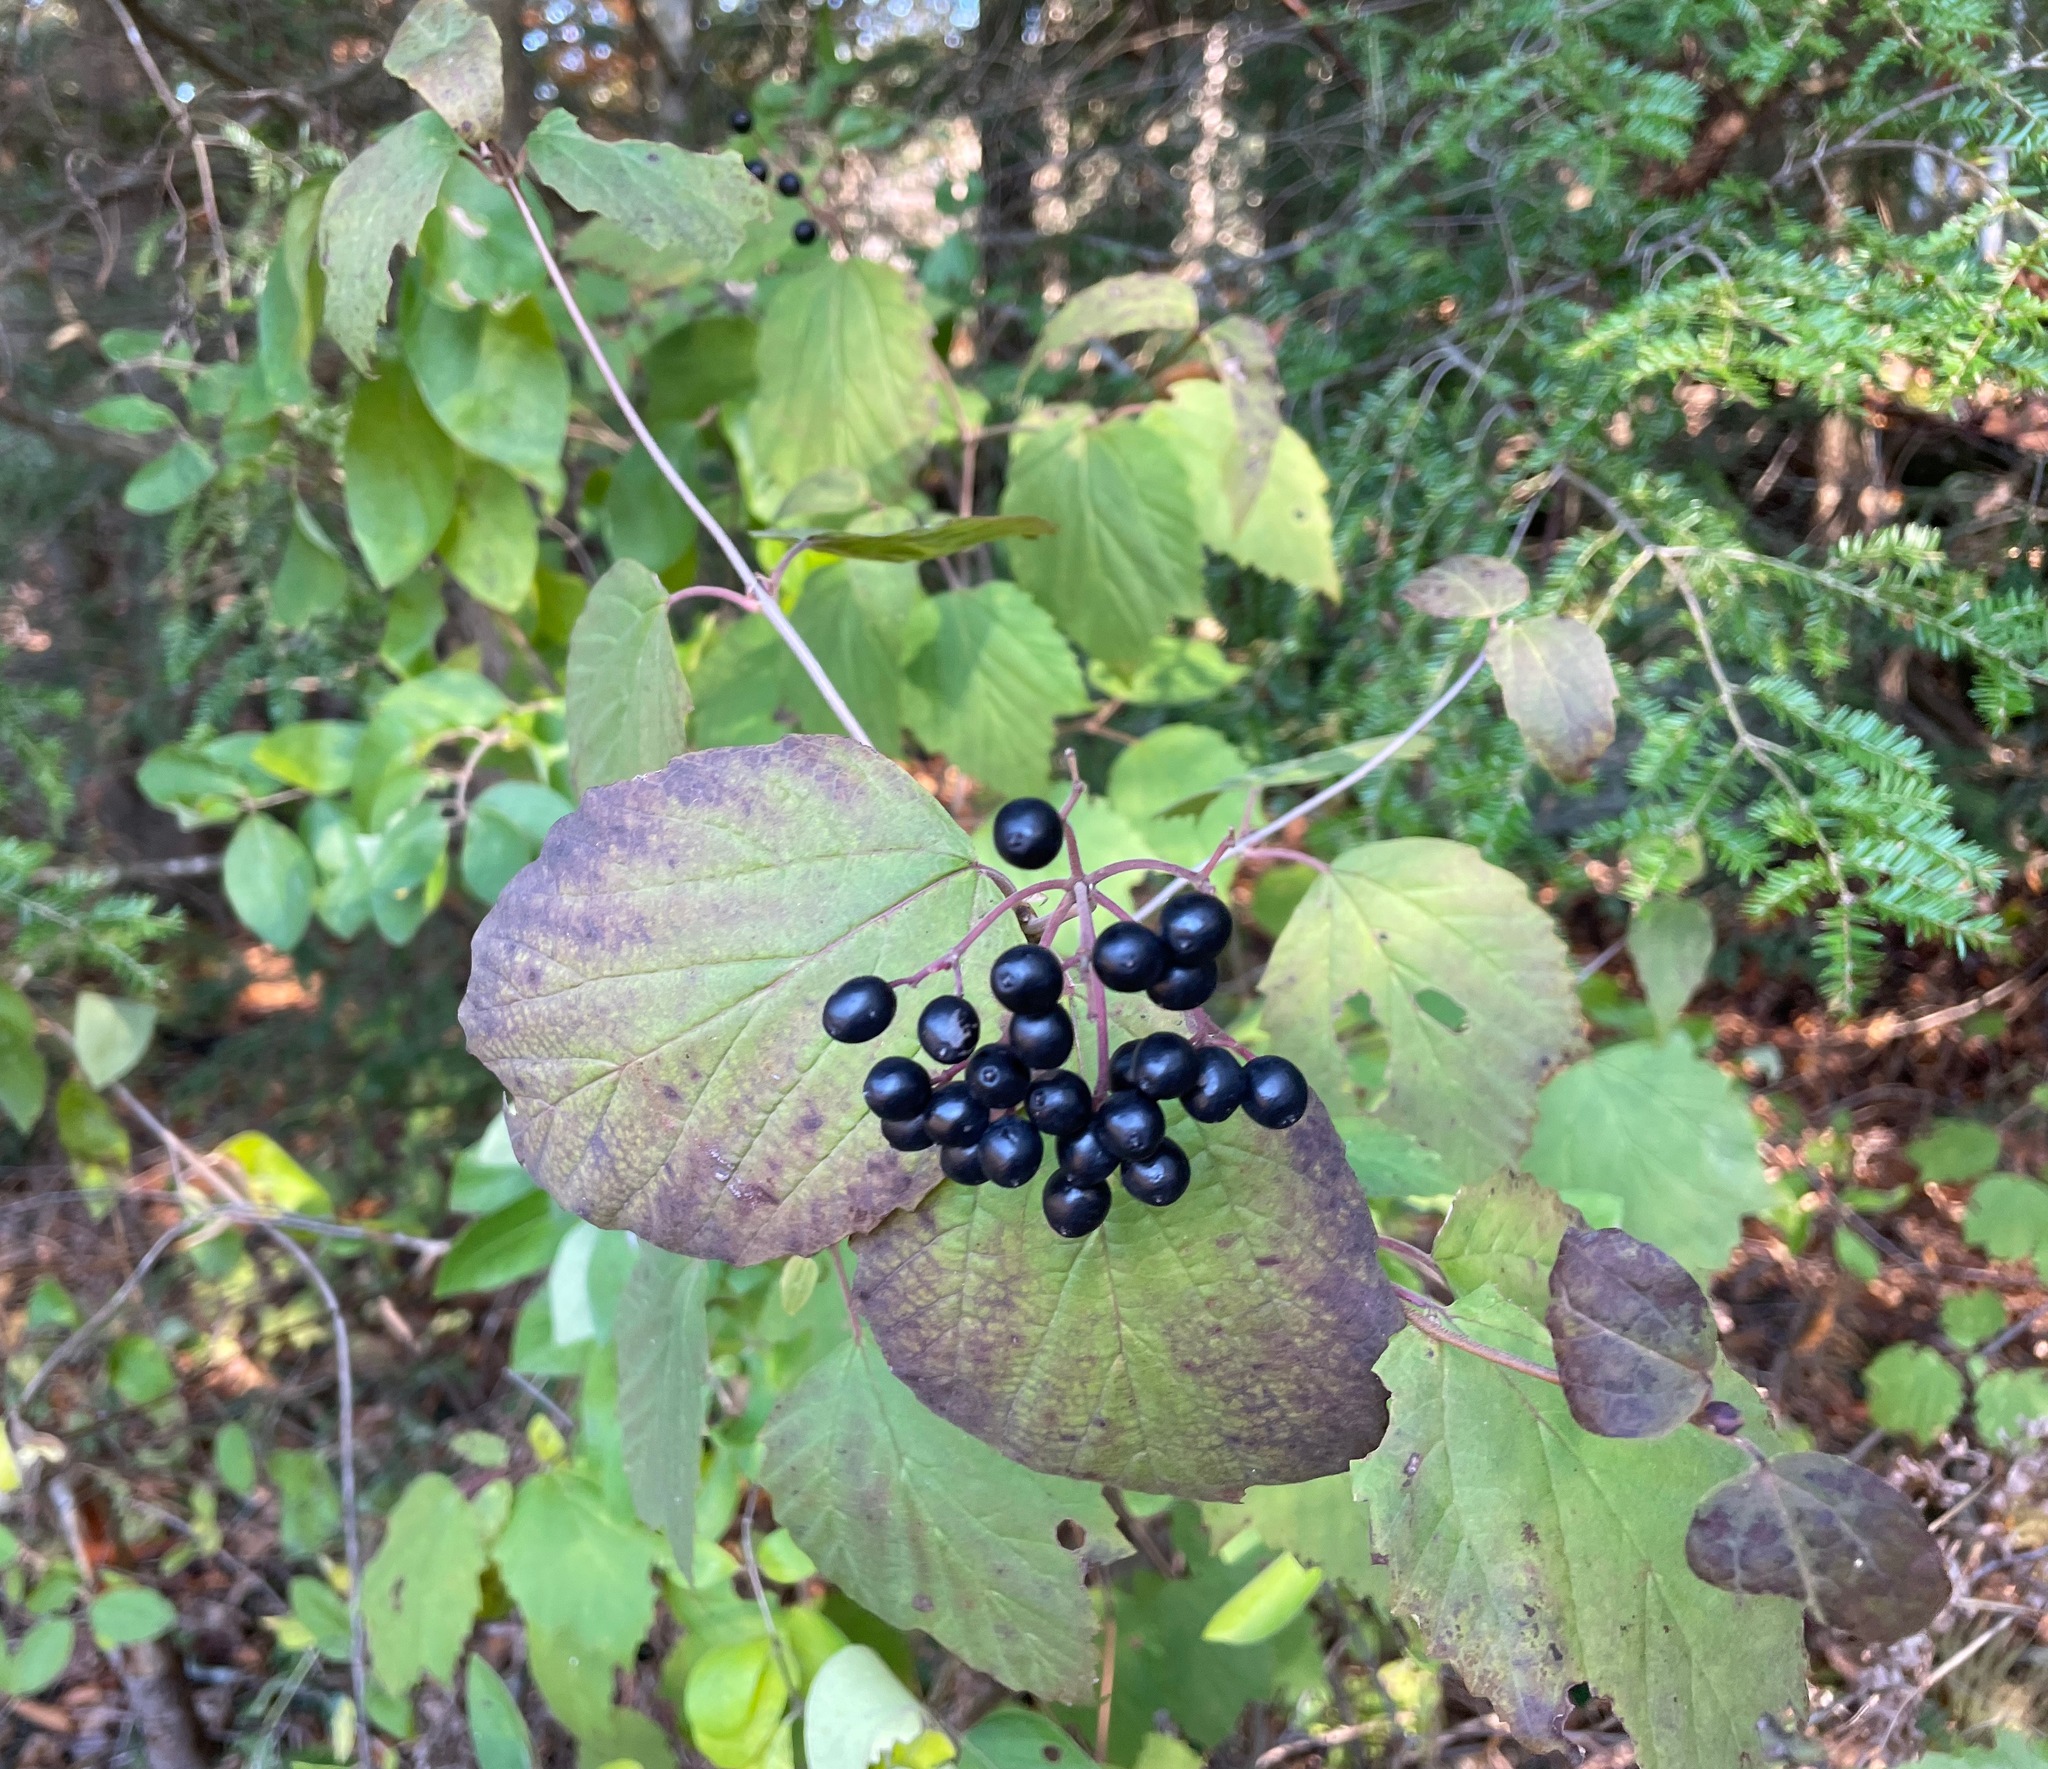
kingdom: Plantae
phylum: Tracheophyta
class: Magnoliopsida
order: Dipsacales
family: Viburnaceae
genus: Viburnum
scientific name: Viburnum acerifolium
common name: Dockmackie
